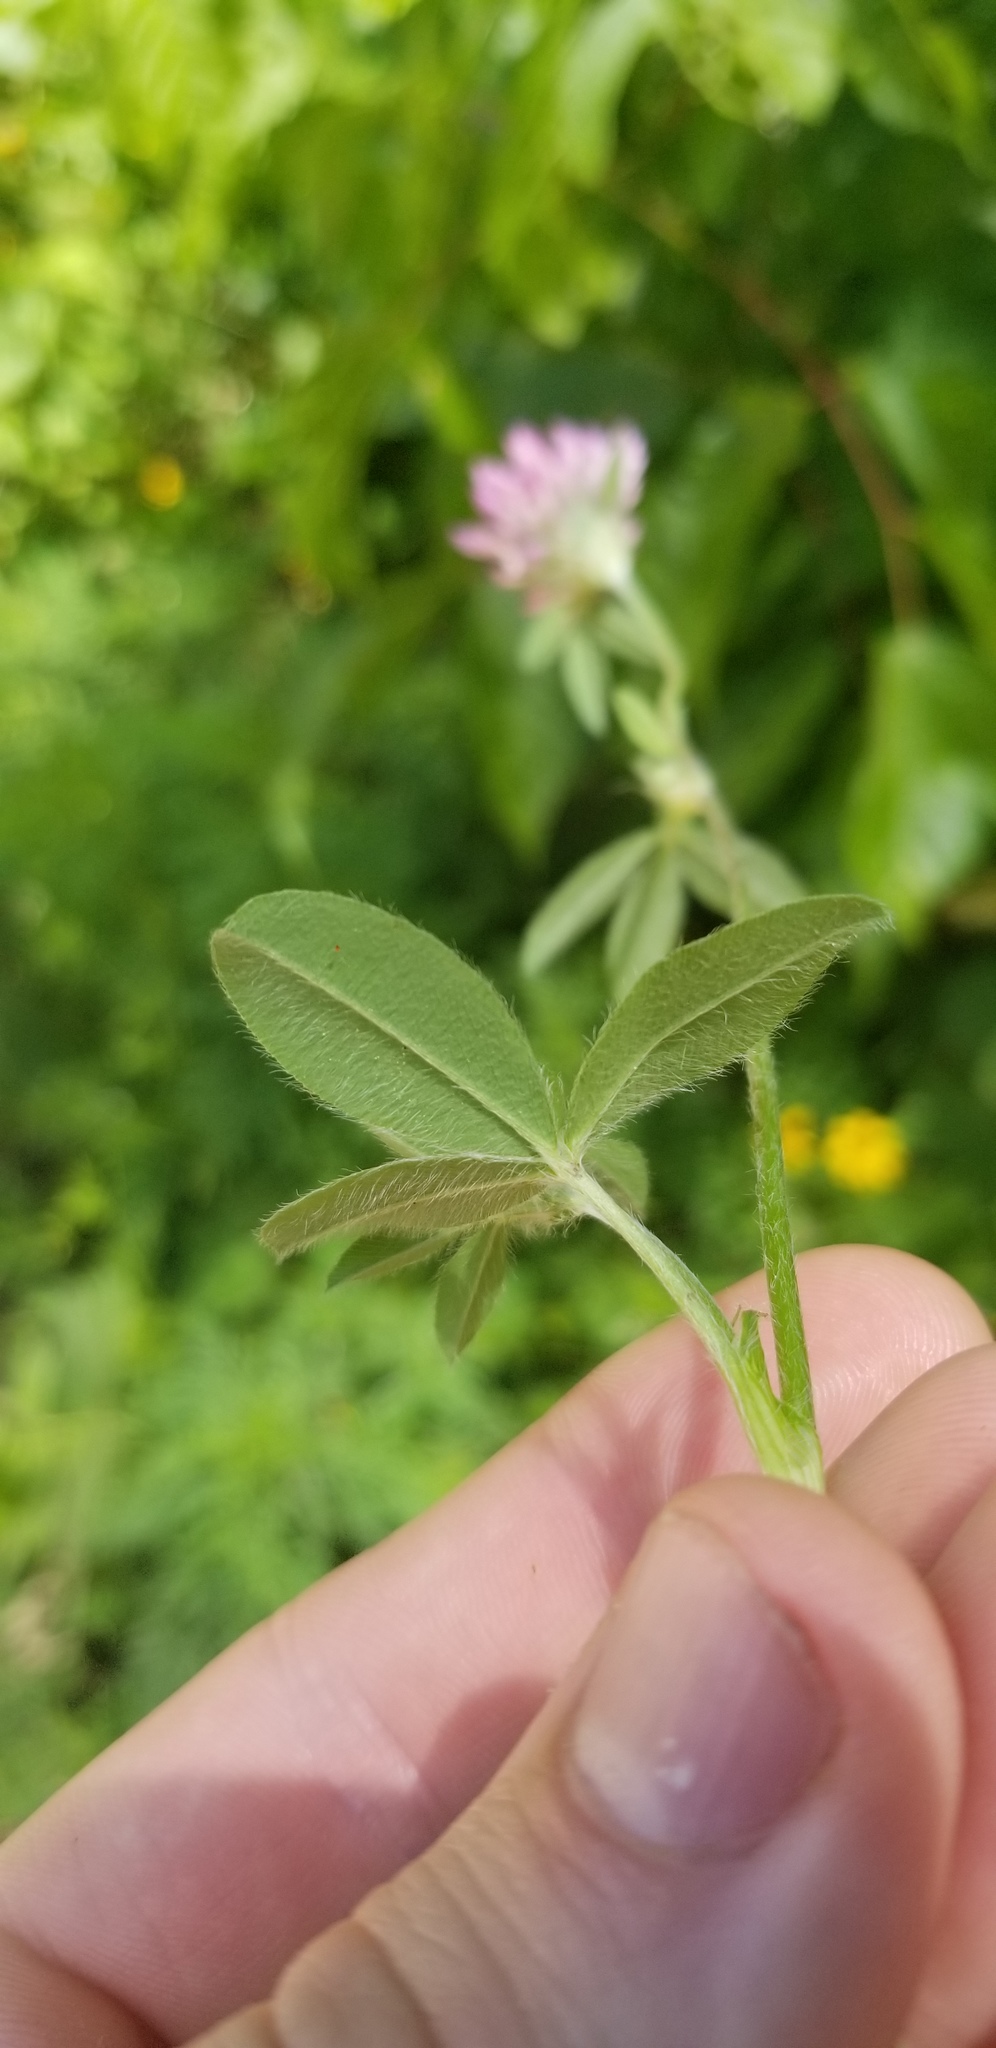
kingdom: Plantae
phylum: Tracheophyta
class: Magnoliopsida
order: Fabales
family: Fabaceae
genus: Trifolium
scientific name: Trifolium pratense
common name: Red clover
